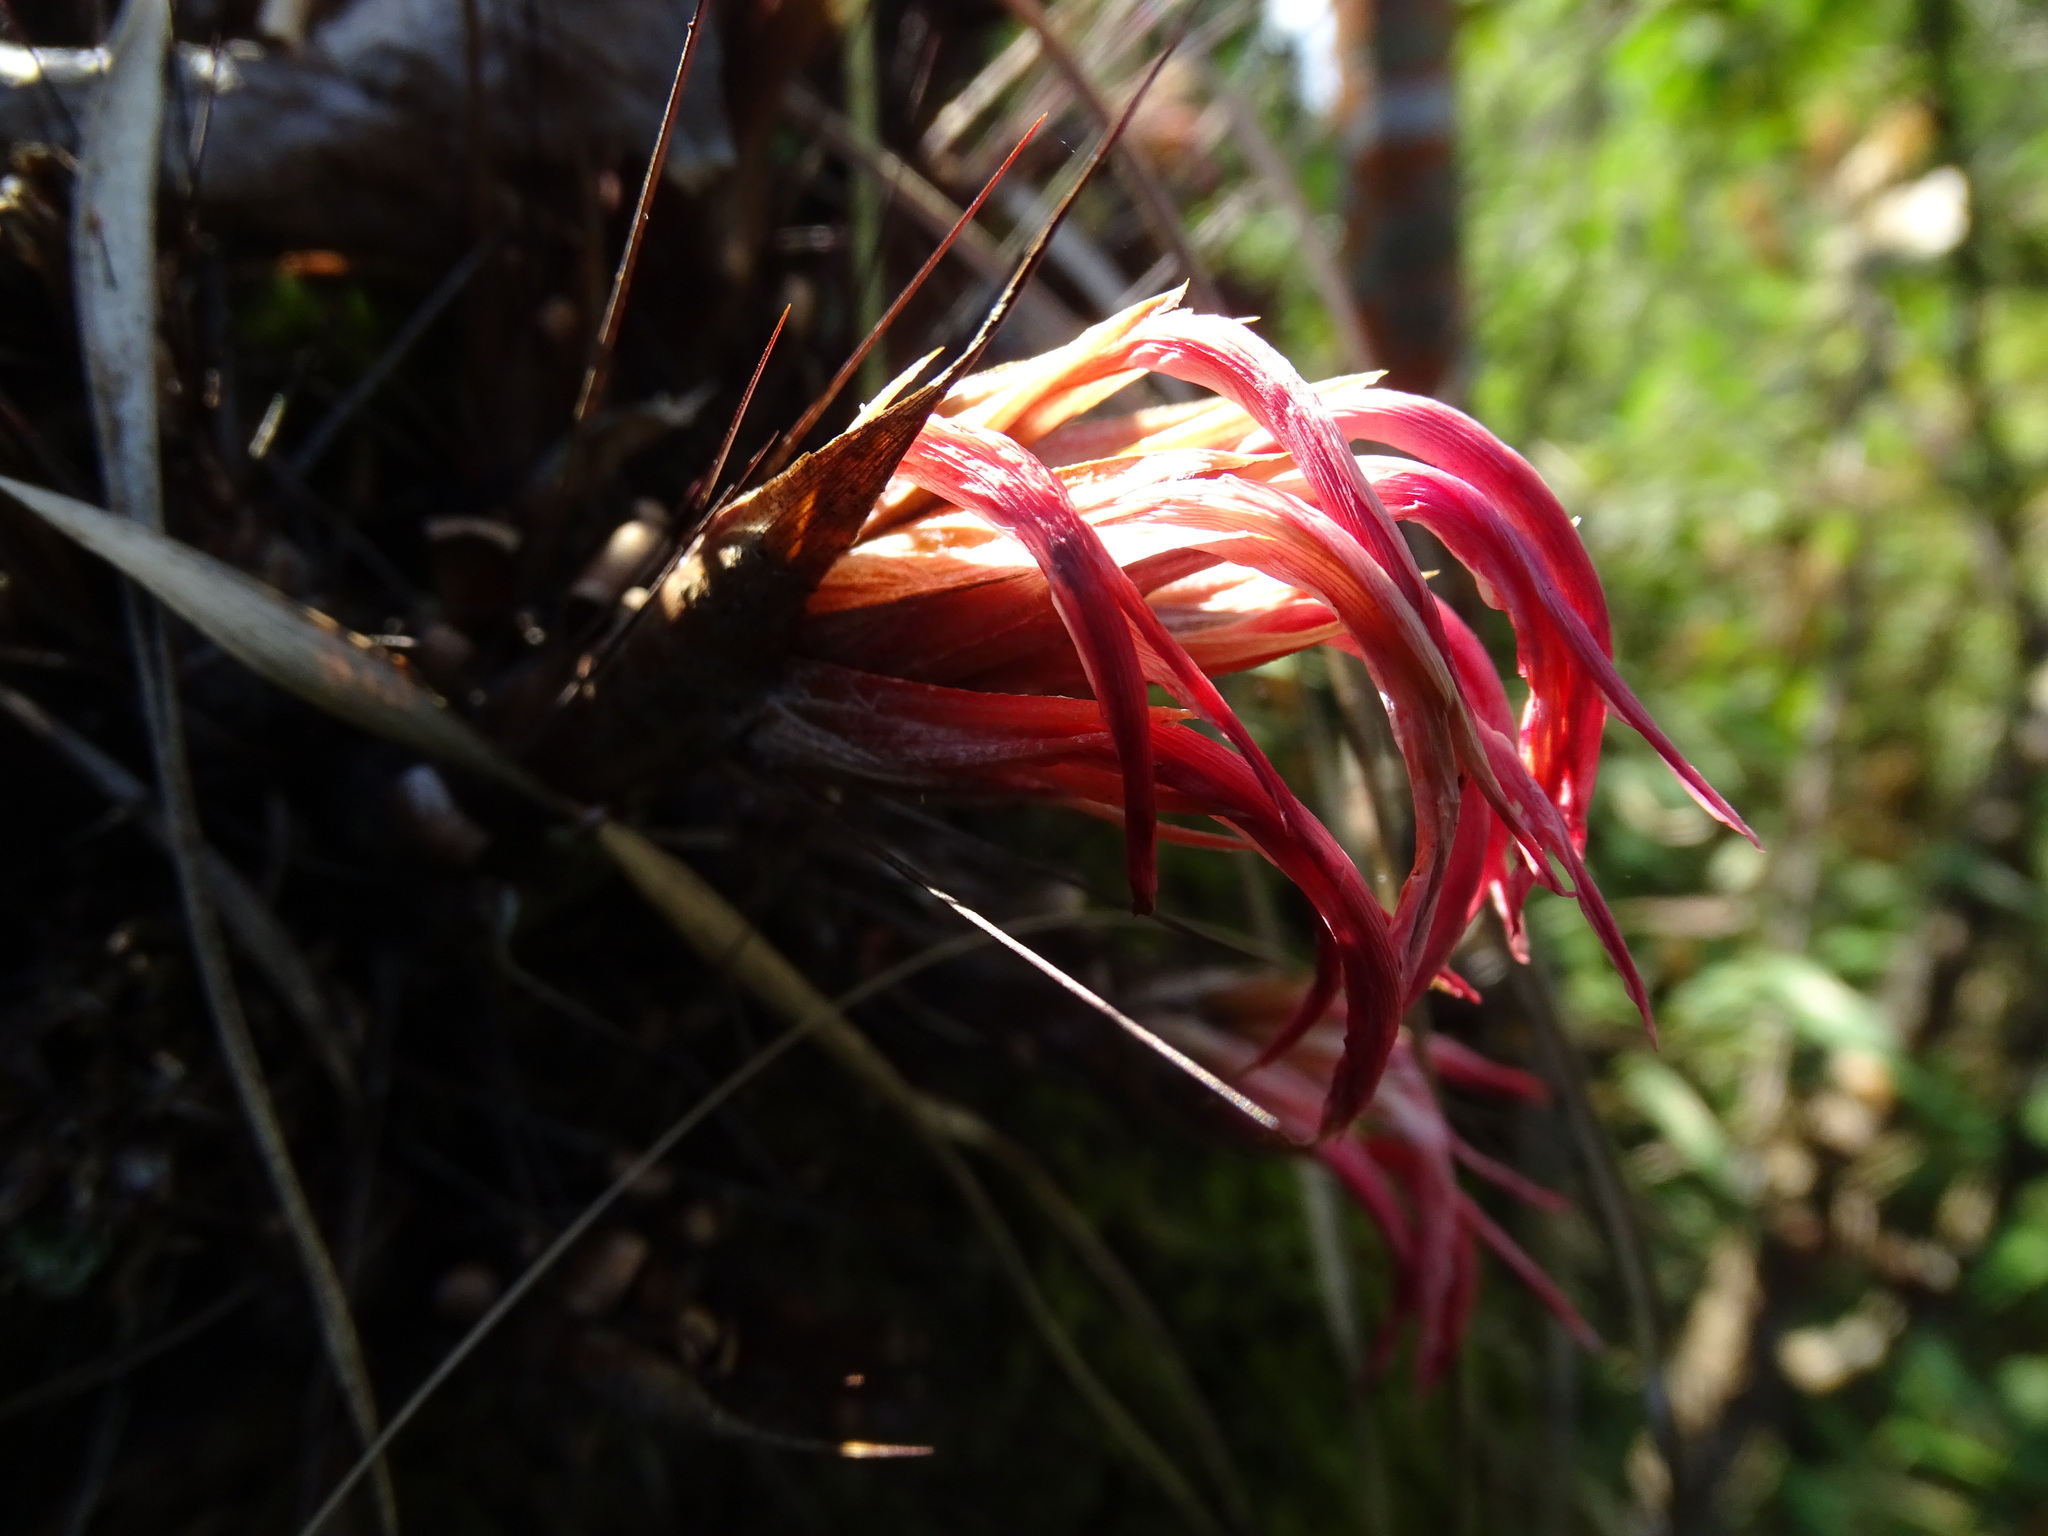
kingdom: Plantae
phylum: Tracheophyta
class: Liliopsida
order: Poales
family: Bromeliaceae
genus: Pitcairnia
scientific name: Pitcairnia heterophylla
